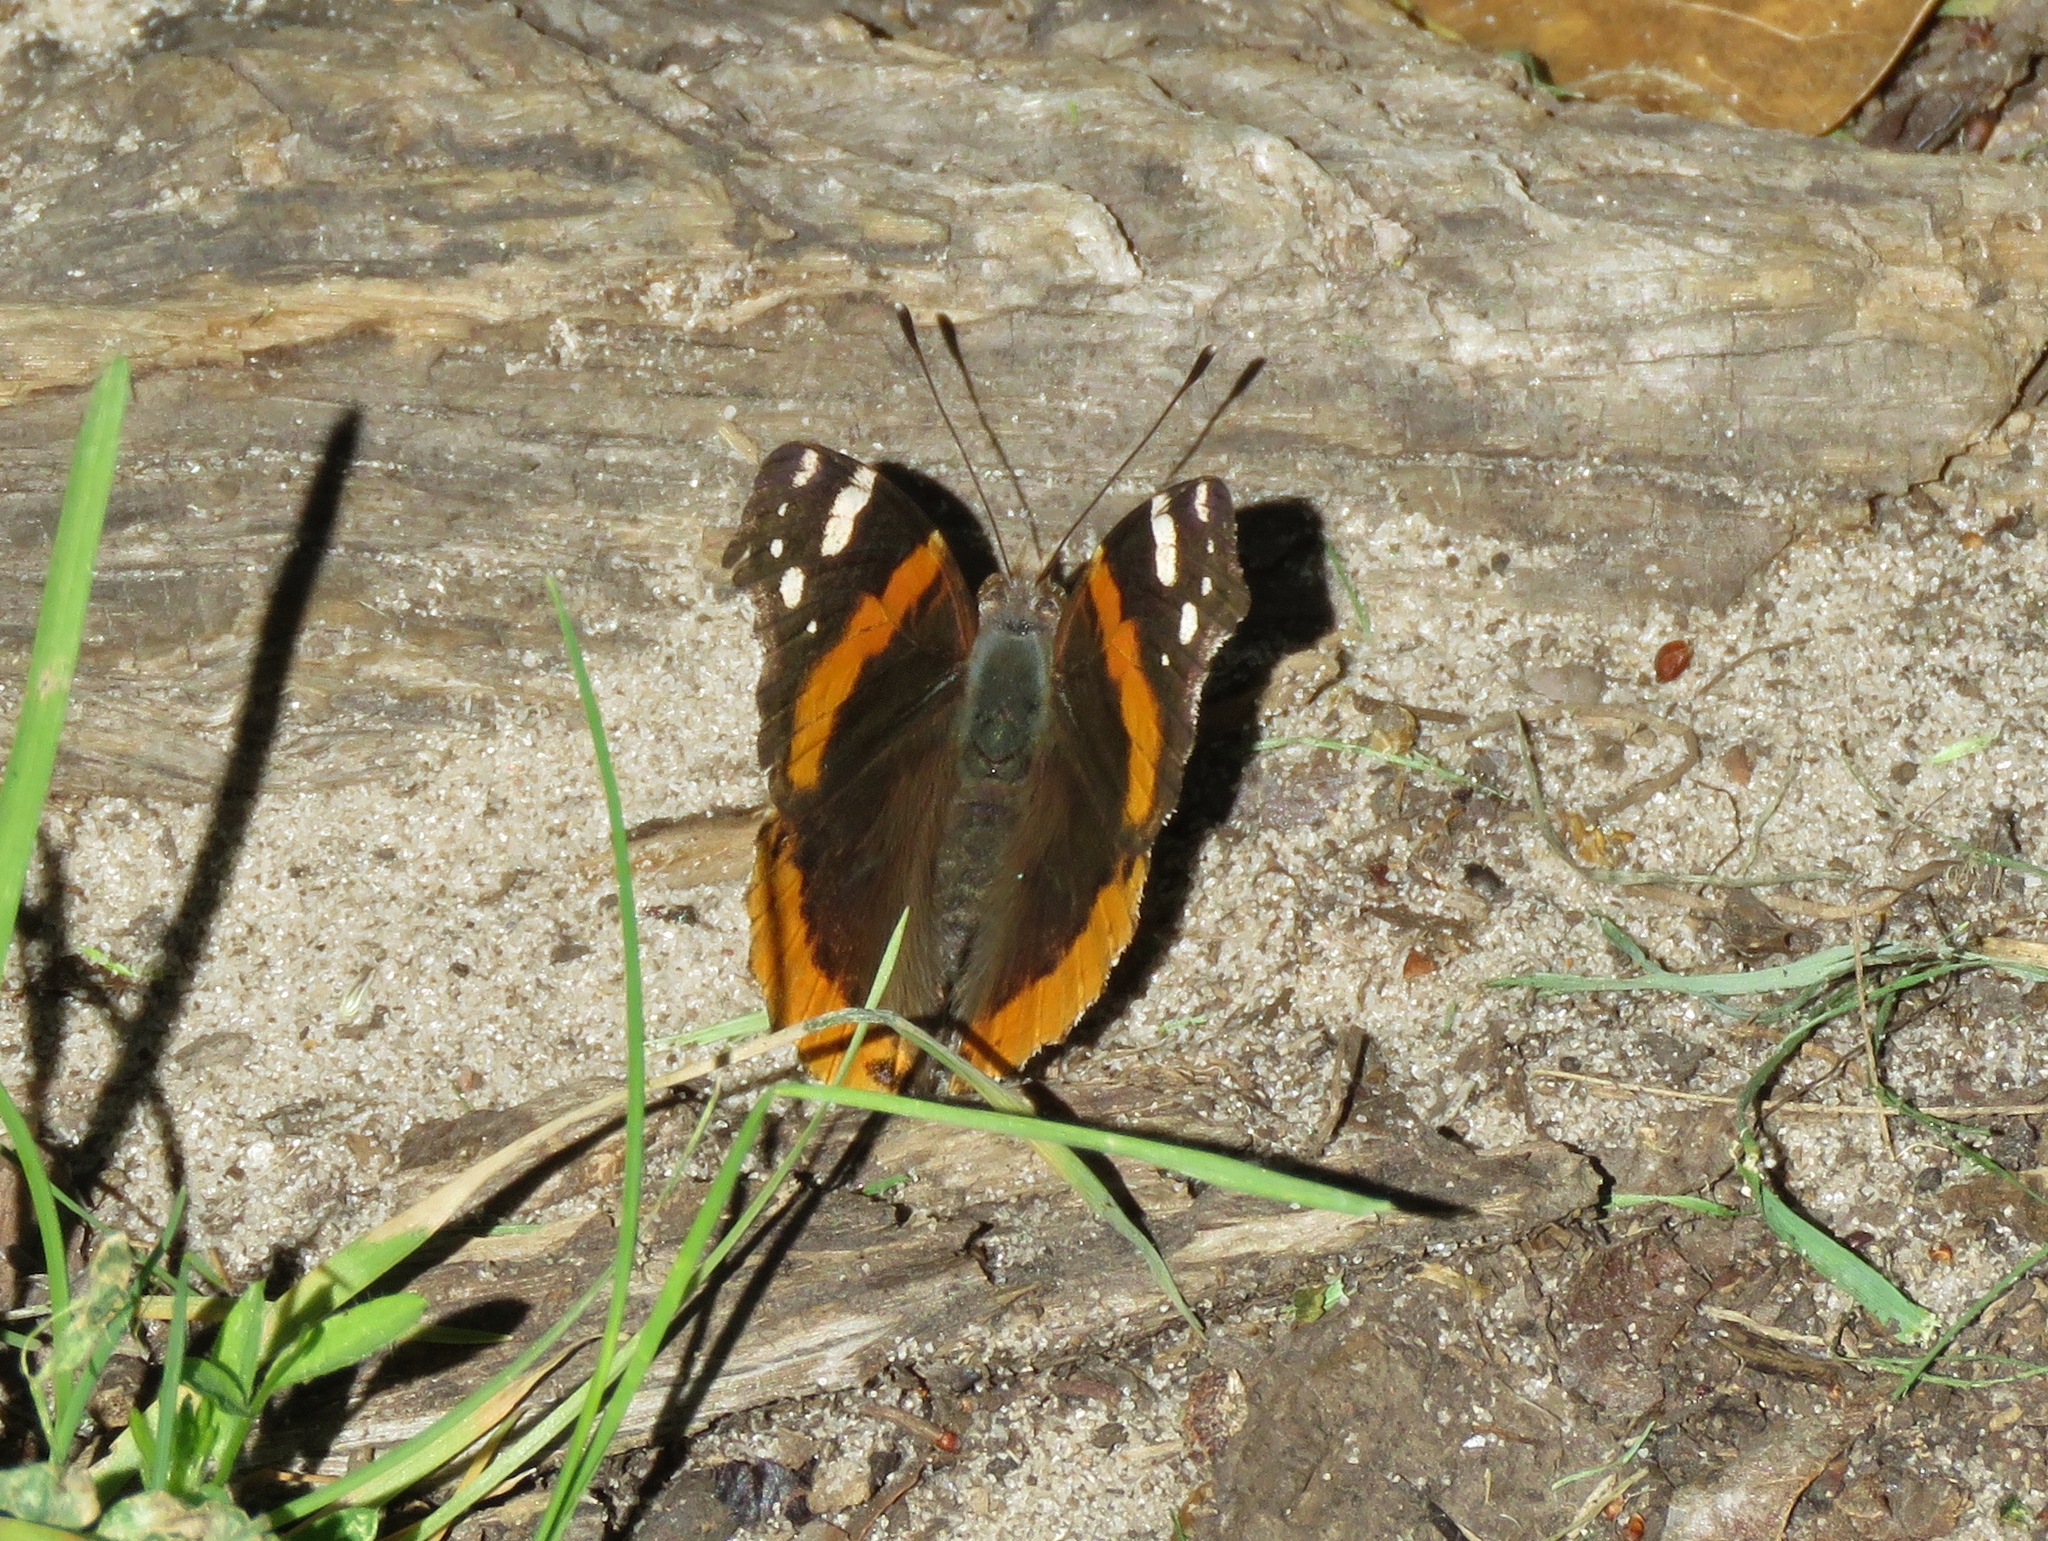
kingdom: Animalia
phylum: Arthropoda
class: Insecta
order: Lepidoptera
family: Nymphalidae
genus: Vanessa
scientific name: Vanessa atalanta
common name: Red admiral
